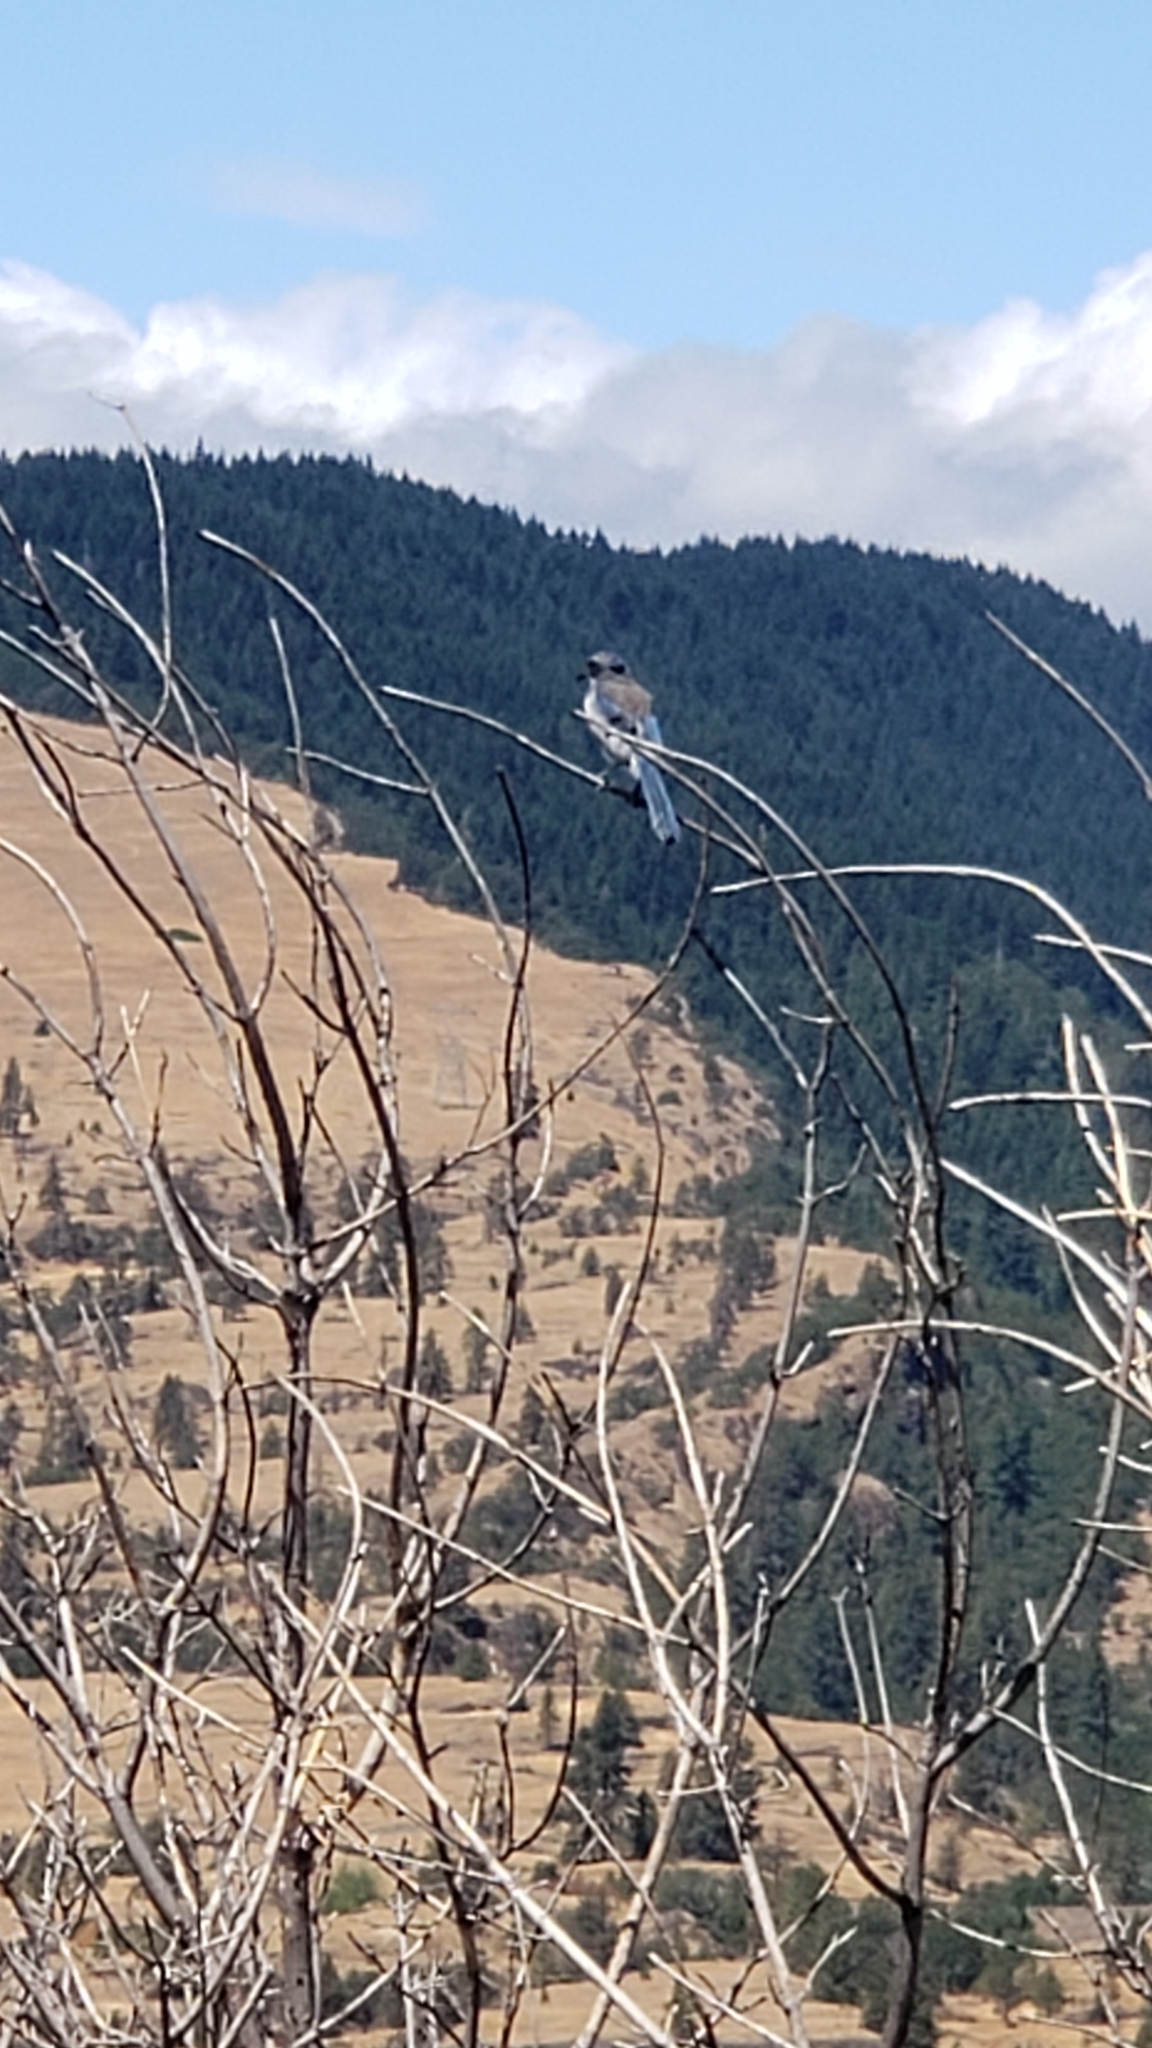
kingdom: Animalia
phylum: Chordata
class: Aves
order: Passeriformes
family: Corvidae
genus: Aphelocoma
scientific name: Aphelocoma californica
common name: California scrub-jay
